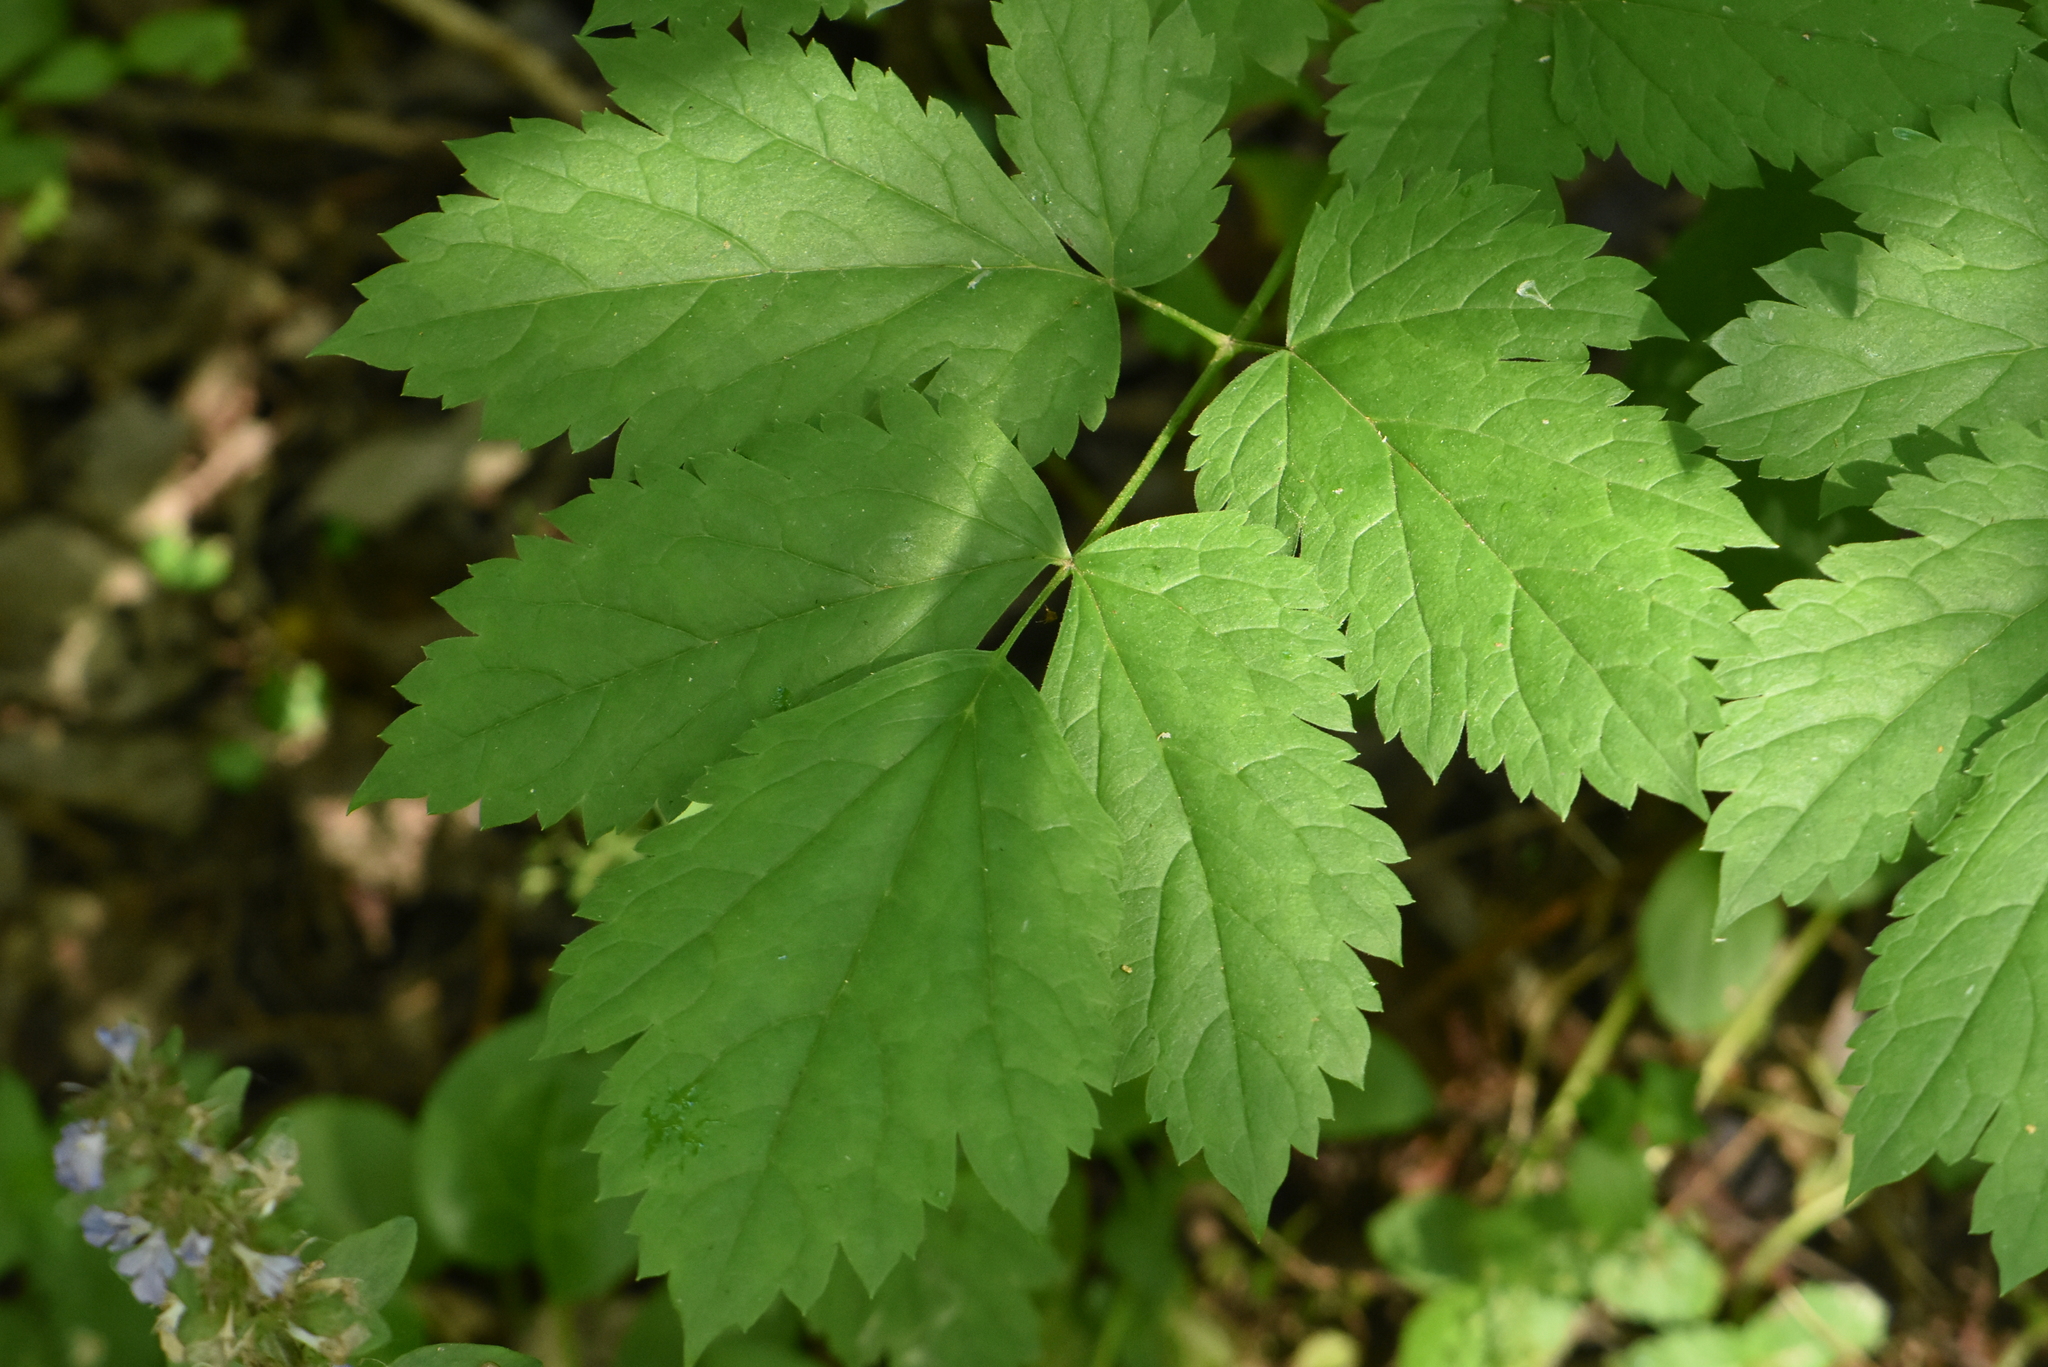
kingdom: Plantae
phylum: Tracheophyta
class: Magnoliopsida
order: Ranunculales
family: Ranunculaceae
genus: Actaea
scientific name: Actaea spicata
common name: Baneberry
